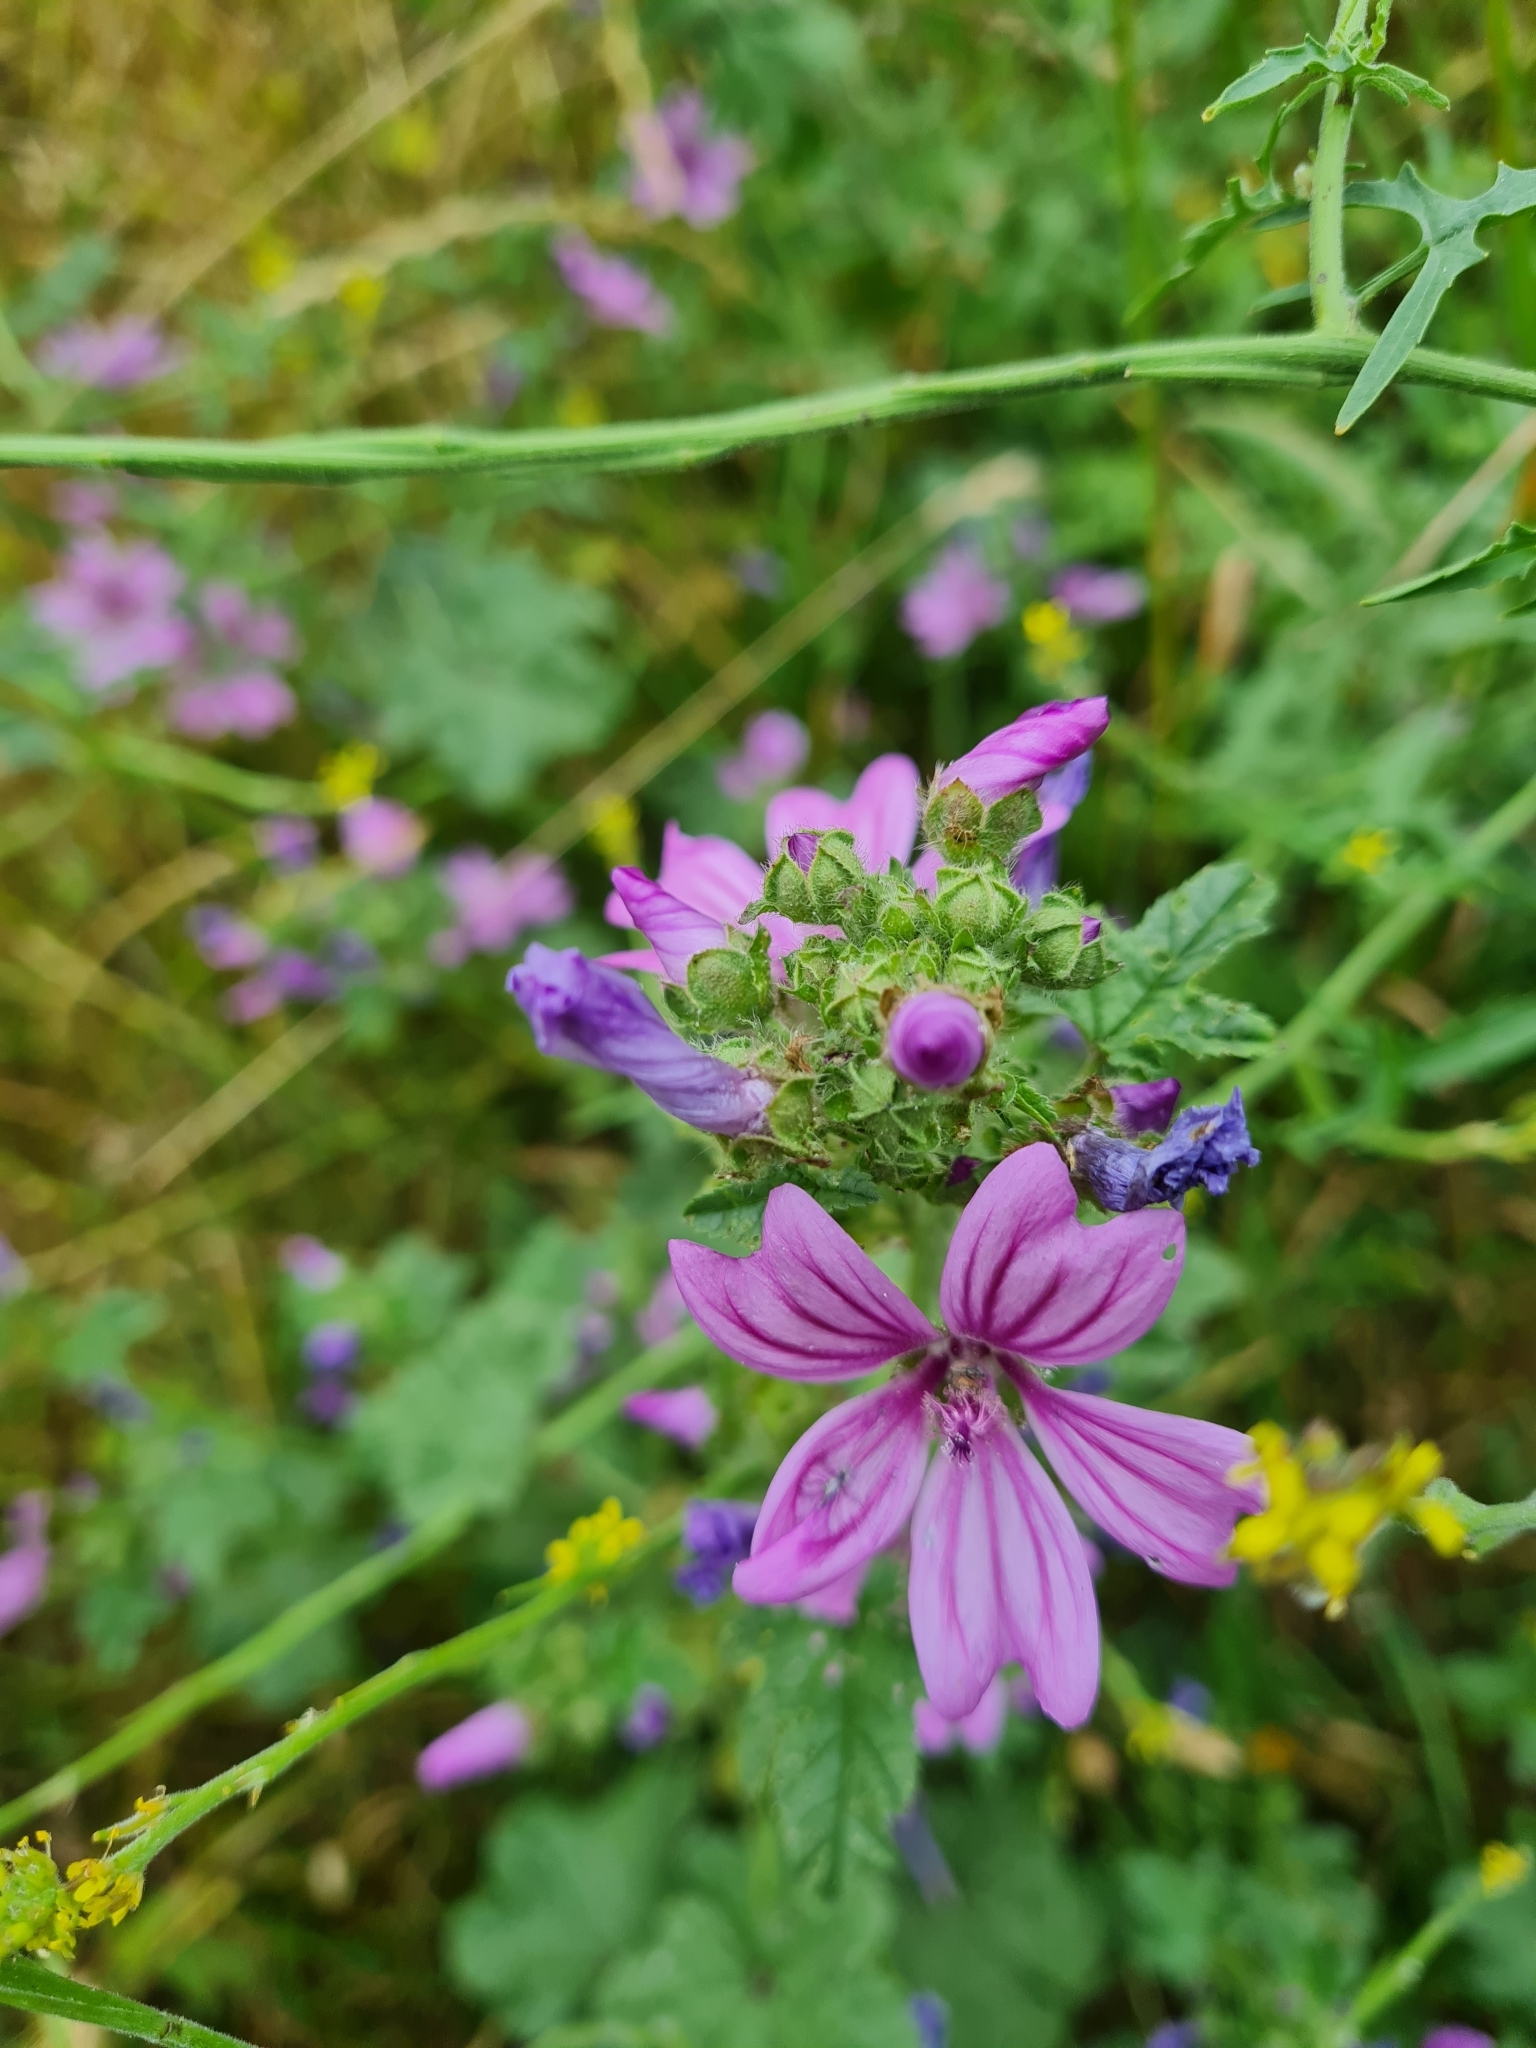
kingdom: Plantae
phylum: Tracheophyta
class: Magnoliopsida
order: Malvales
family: Malvaceae
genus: Malva
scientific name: Malva sylvestris
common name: Common mallow
